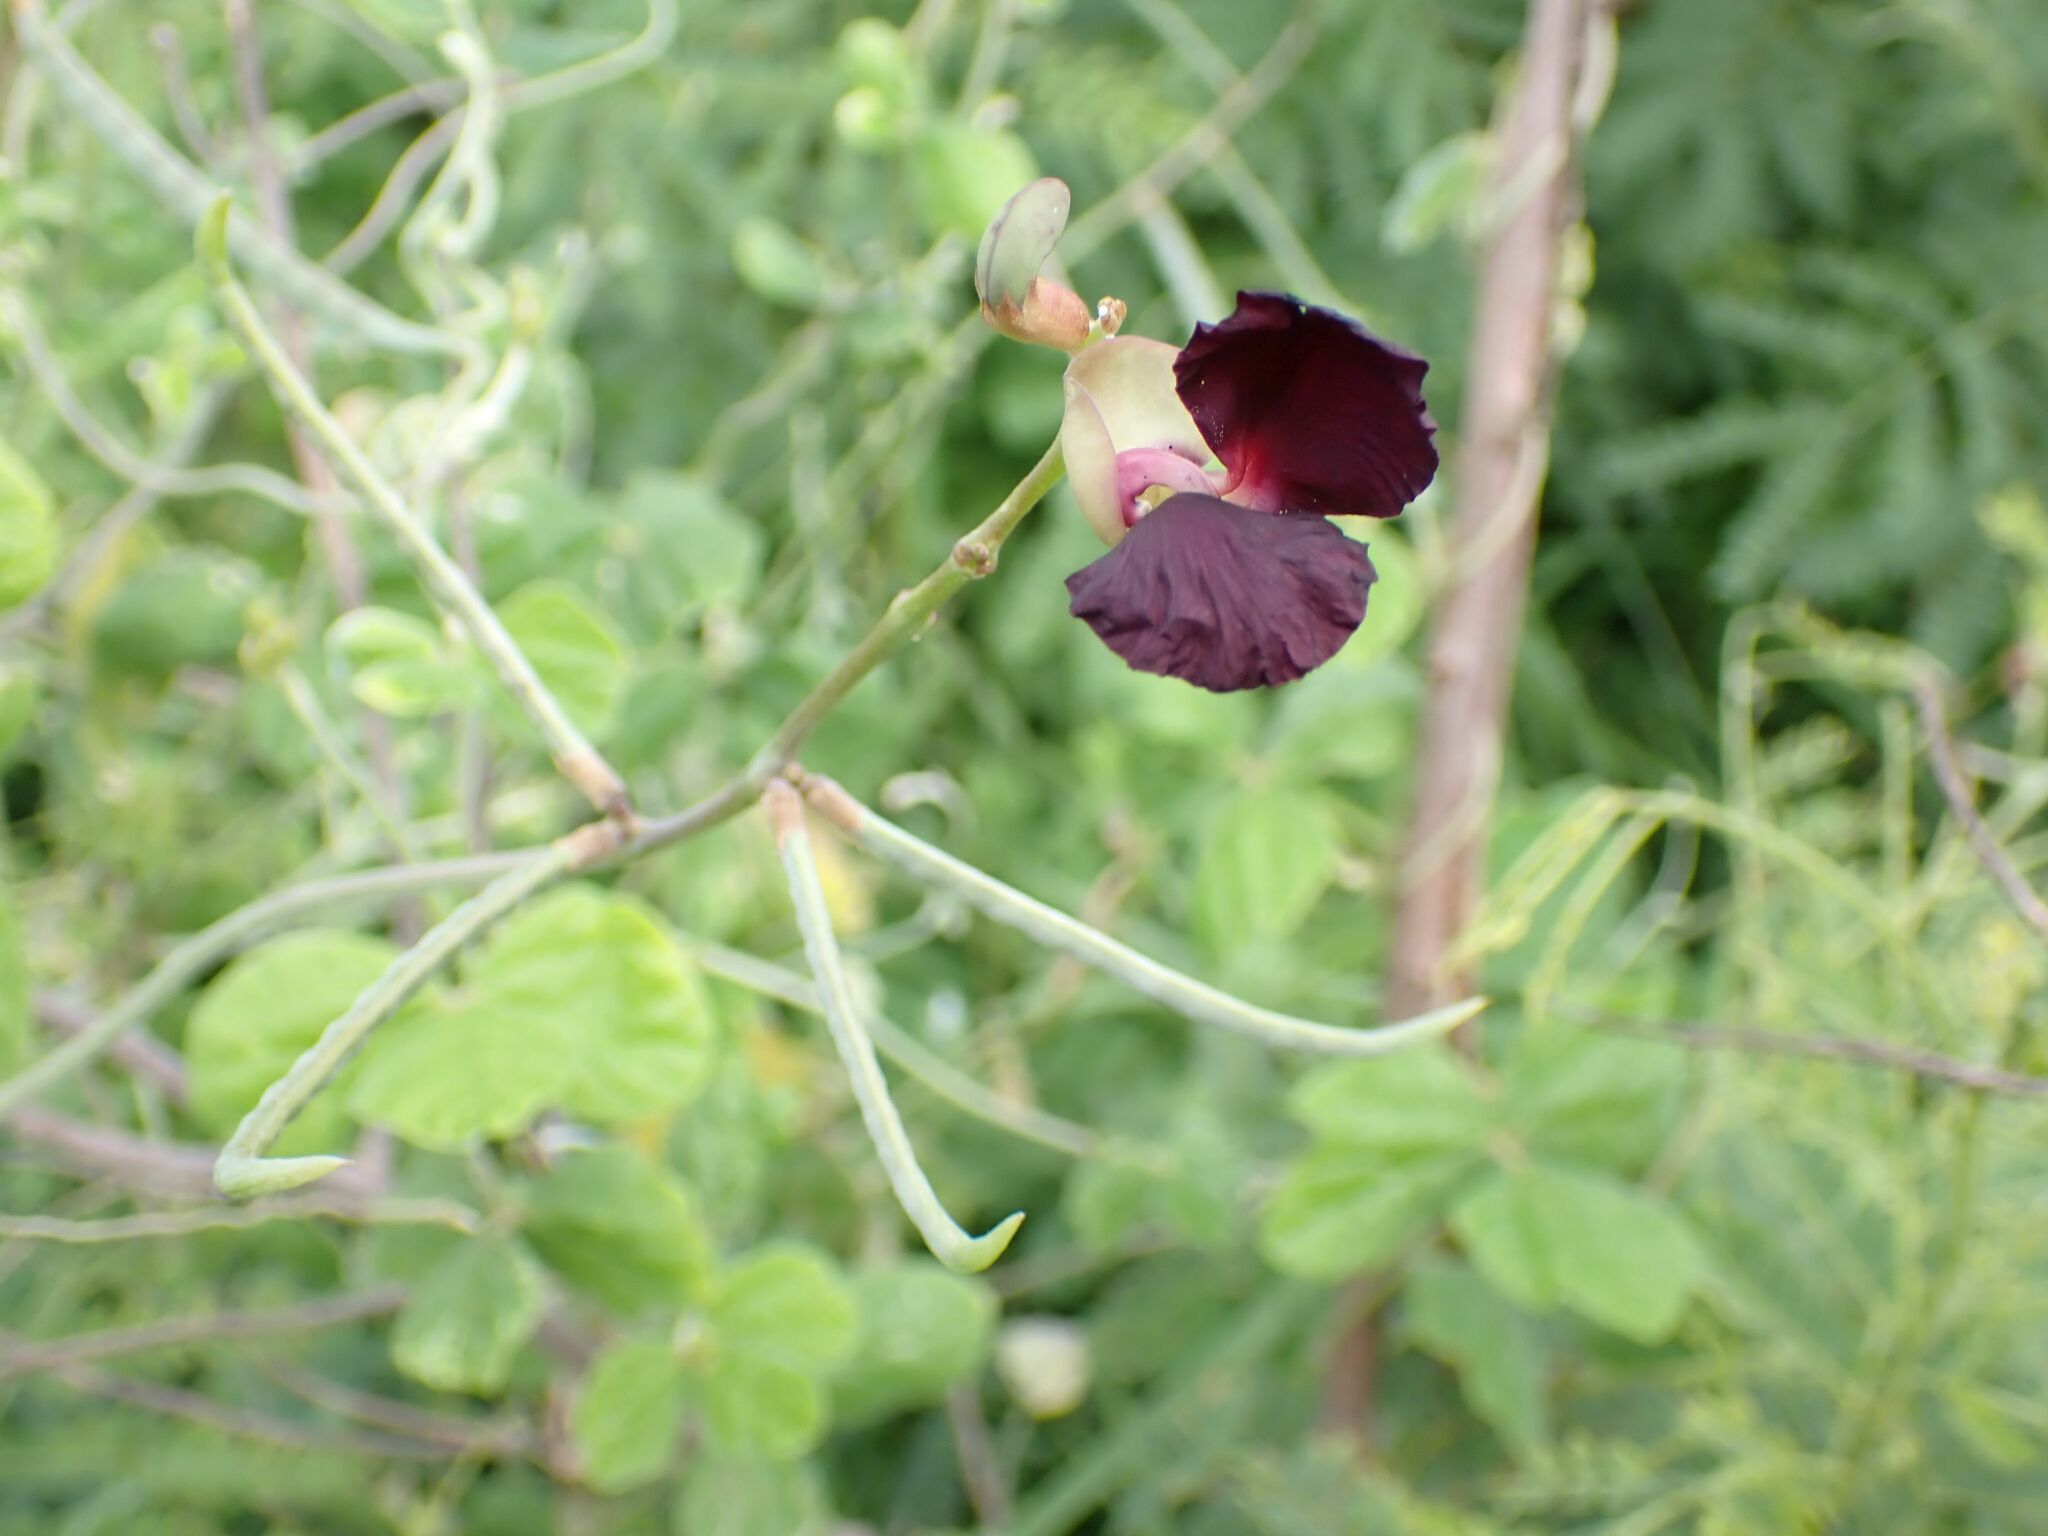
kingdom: Plantae
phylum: Tracheophyta
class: Magnoliopsida
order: Fabales
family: Fabaceae
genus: Macroptilium
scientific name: Macroptilium atropurpureum
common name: Purple bushbean
